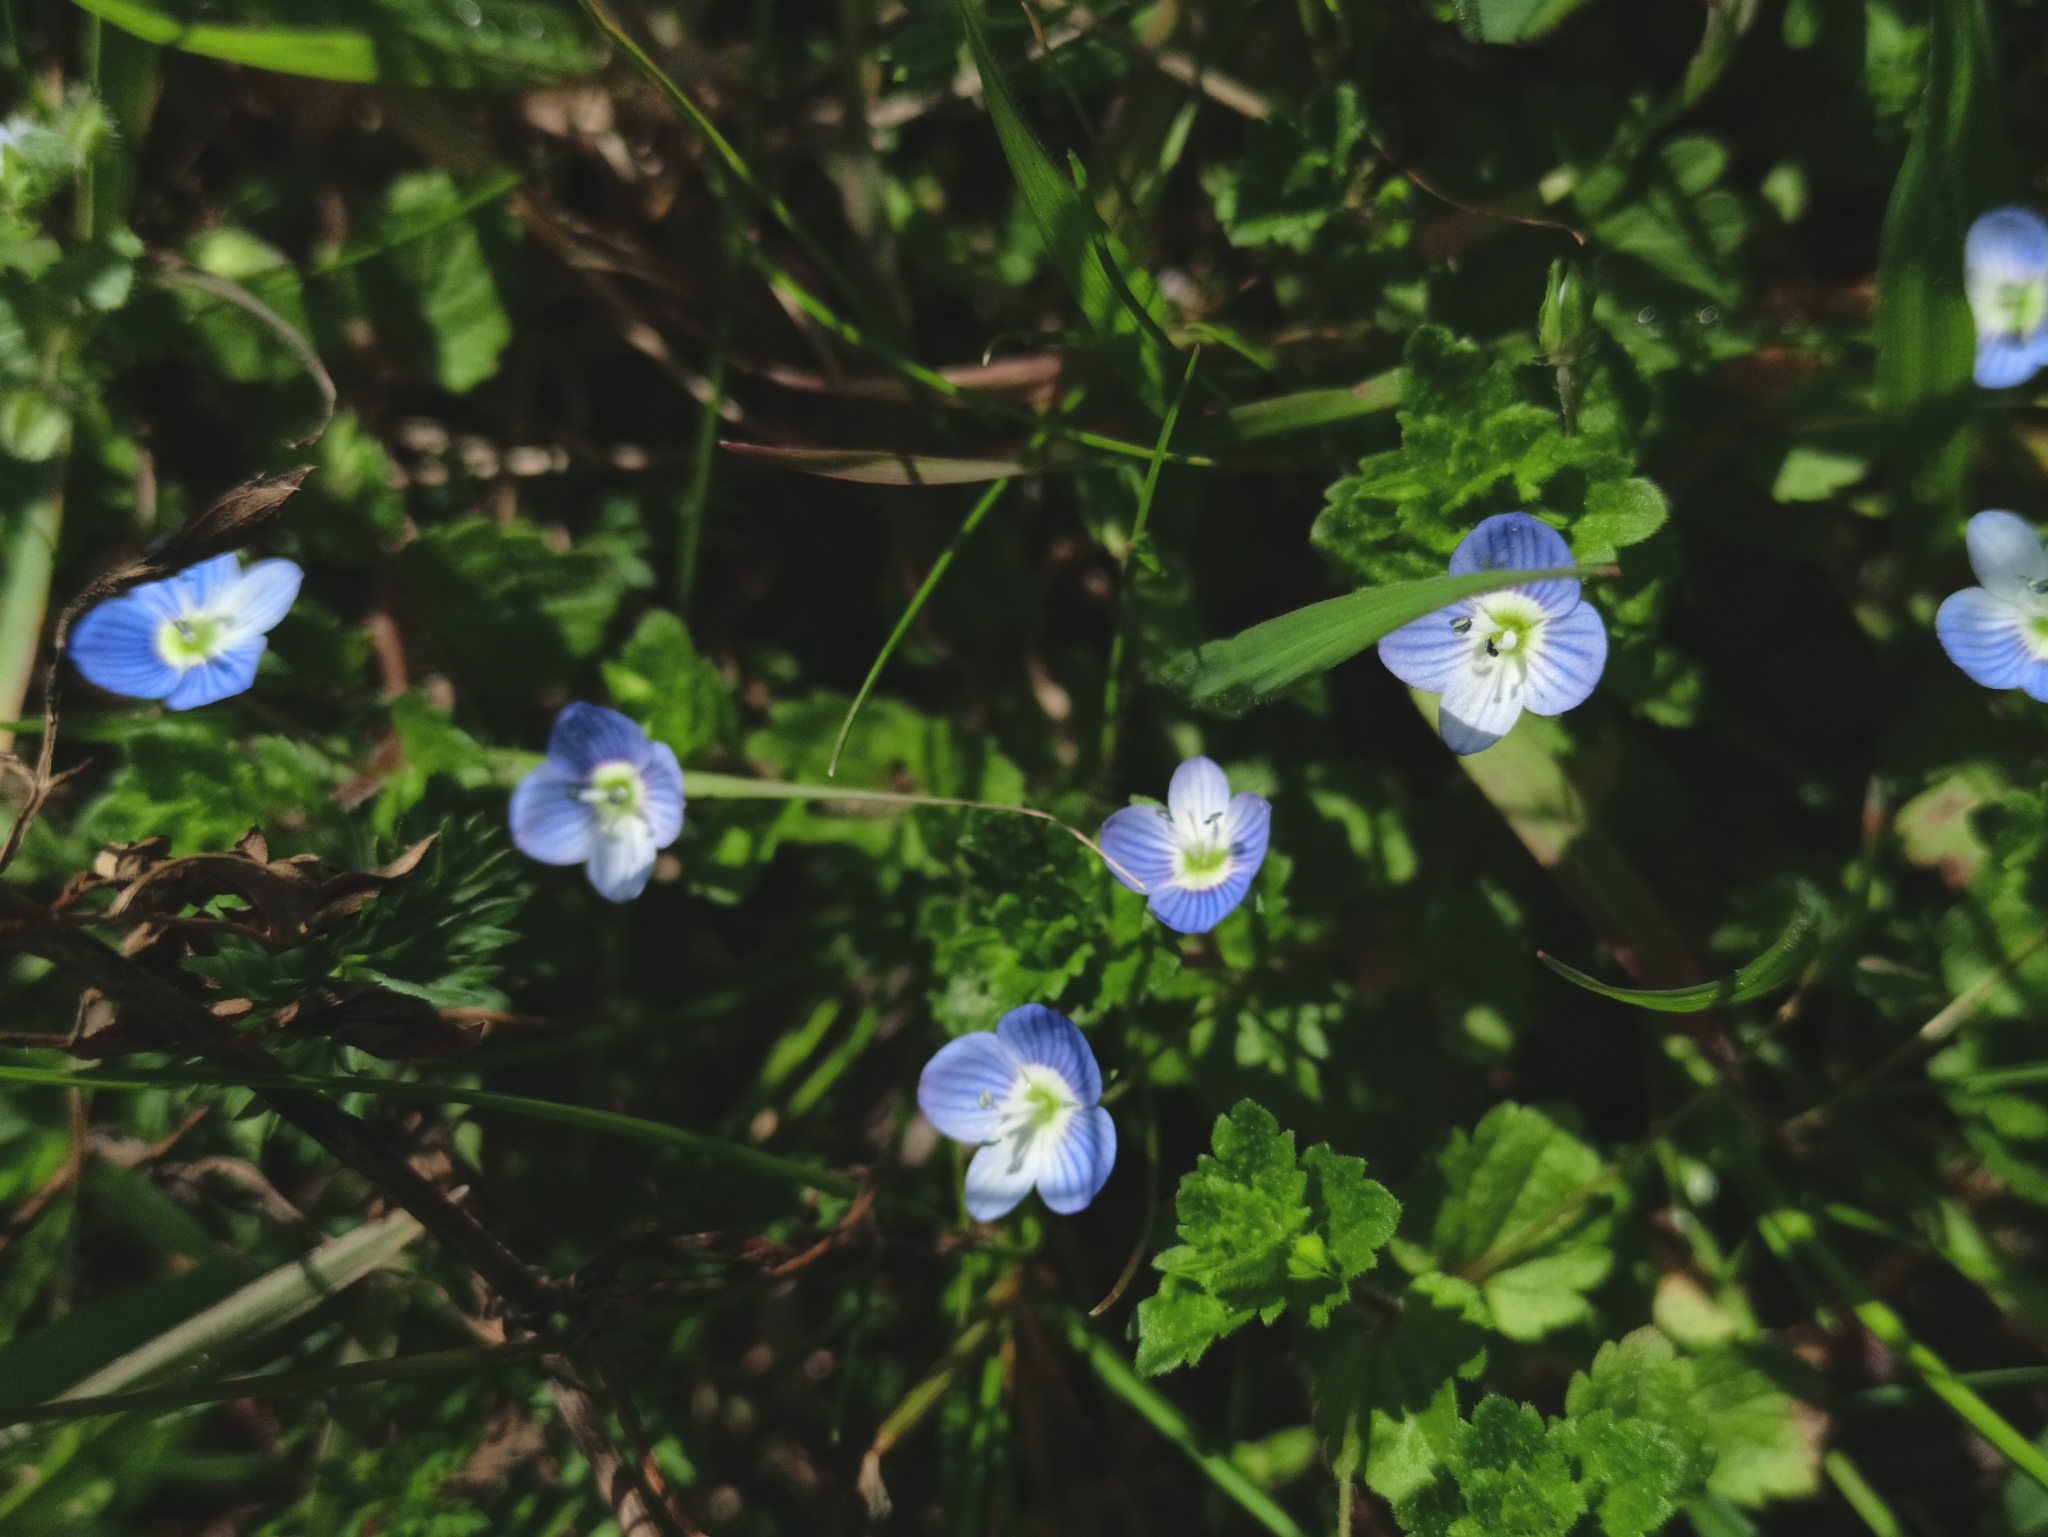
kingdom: Plantae
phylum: Tracheophyta
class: Magnoliopsida
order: Lamiales
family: Plantaginaceae
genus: Veronica
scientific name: Veronica persica
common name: Common field-speedwell
